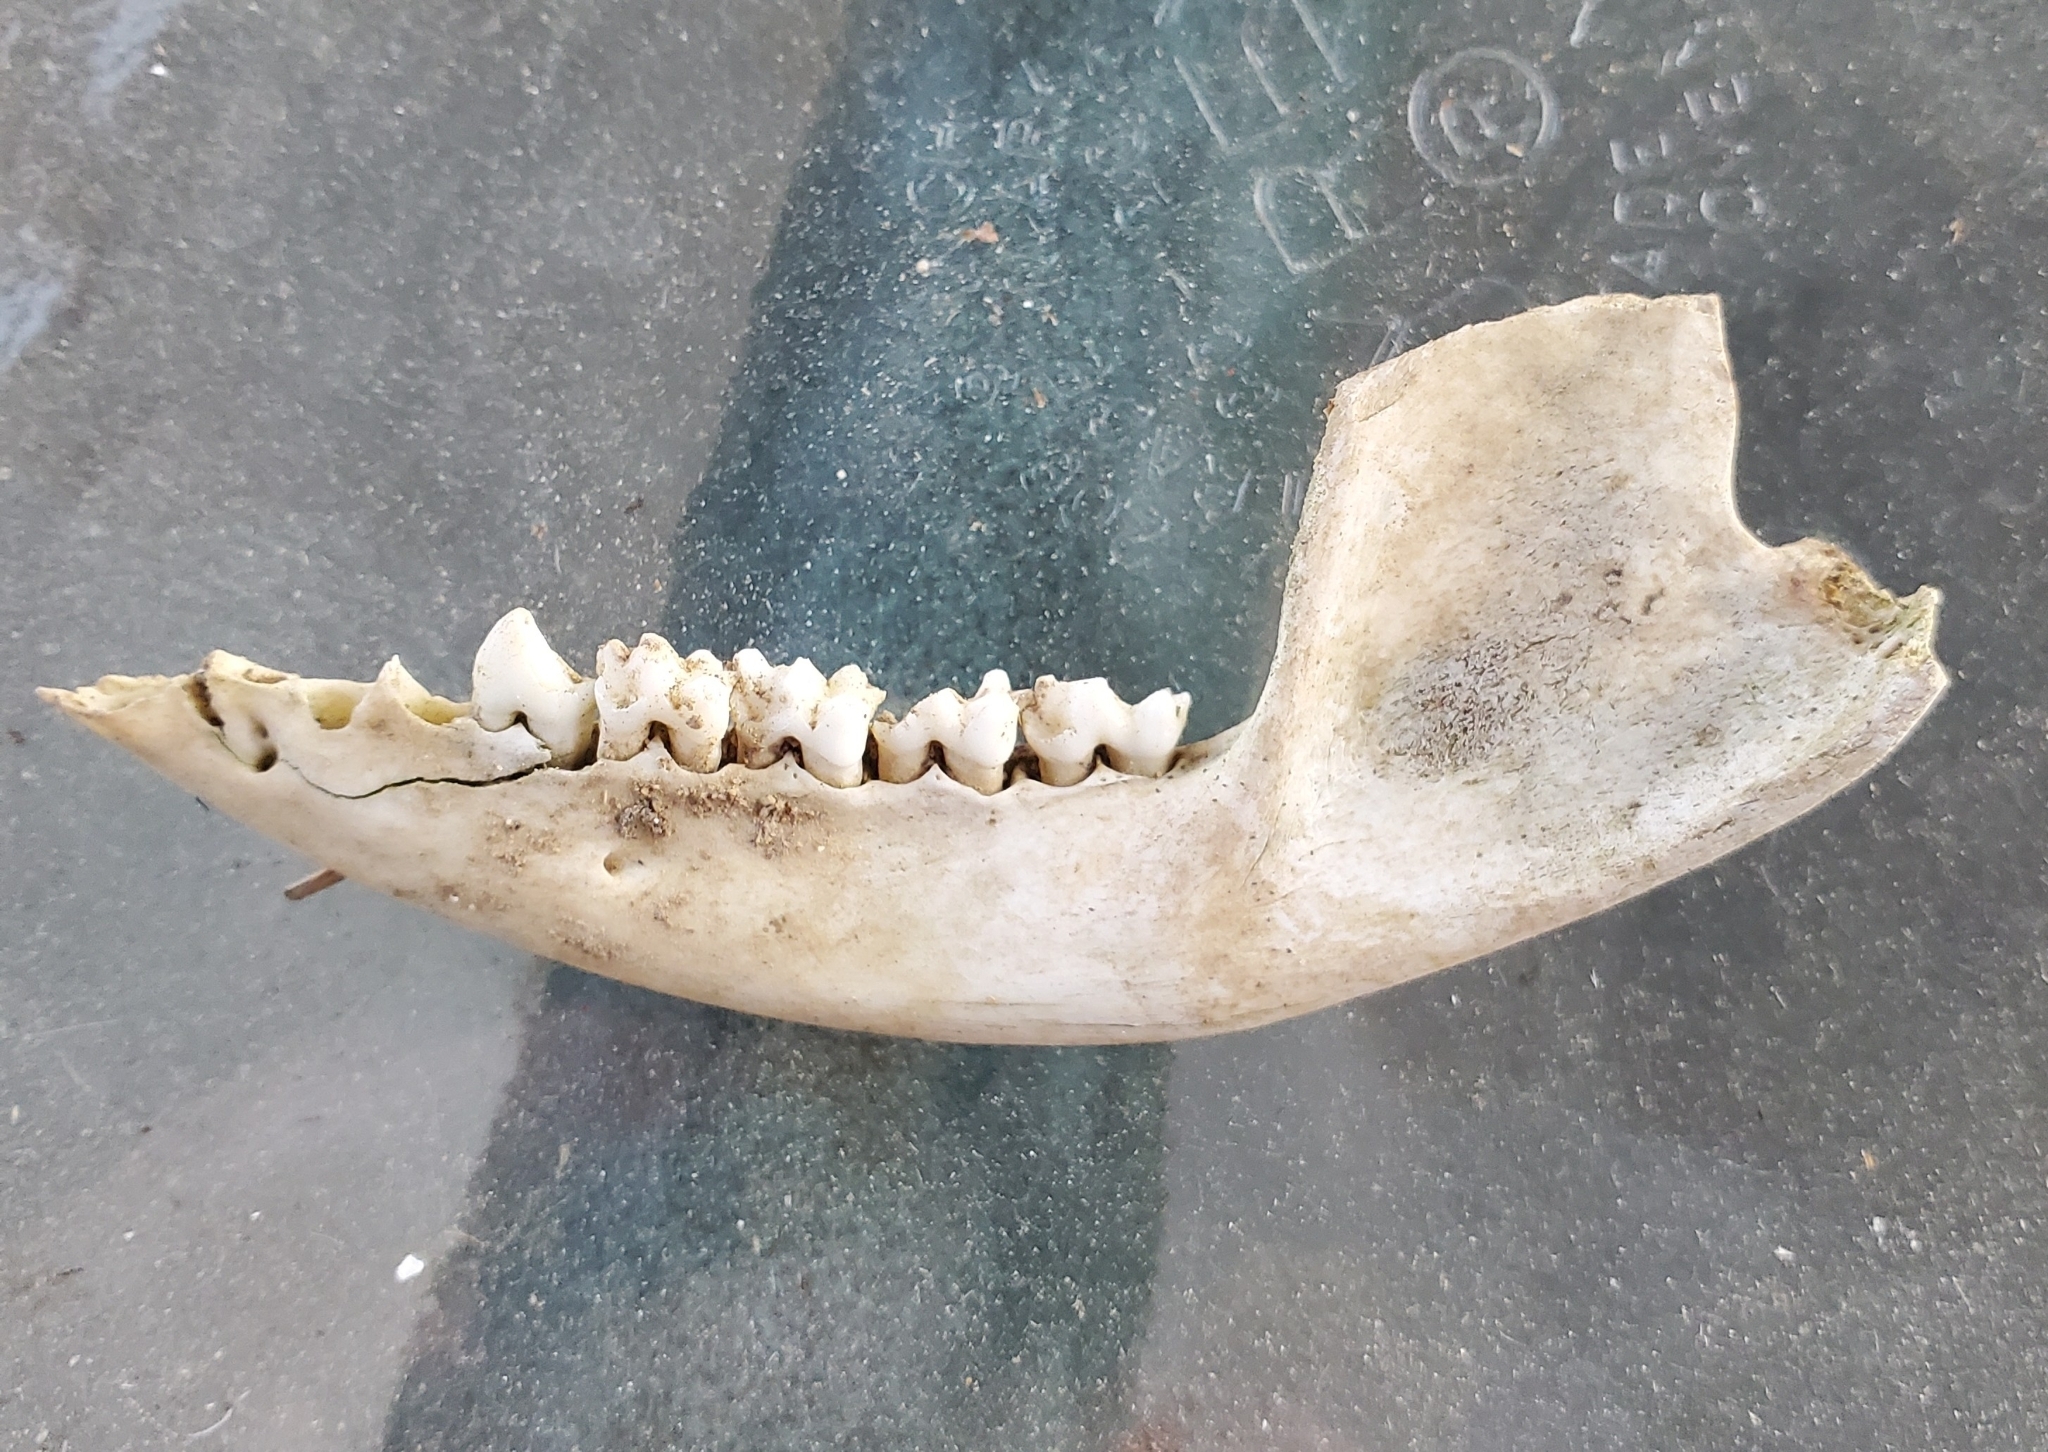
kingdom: Animalia
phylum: Chordata
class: Mammalia
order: Didelphimorphia
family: Didelphidae
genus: Didelphis
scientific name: Didelphis virginiana
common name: Virginia opossum
